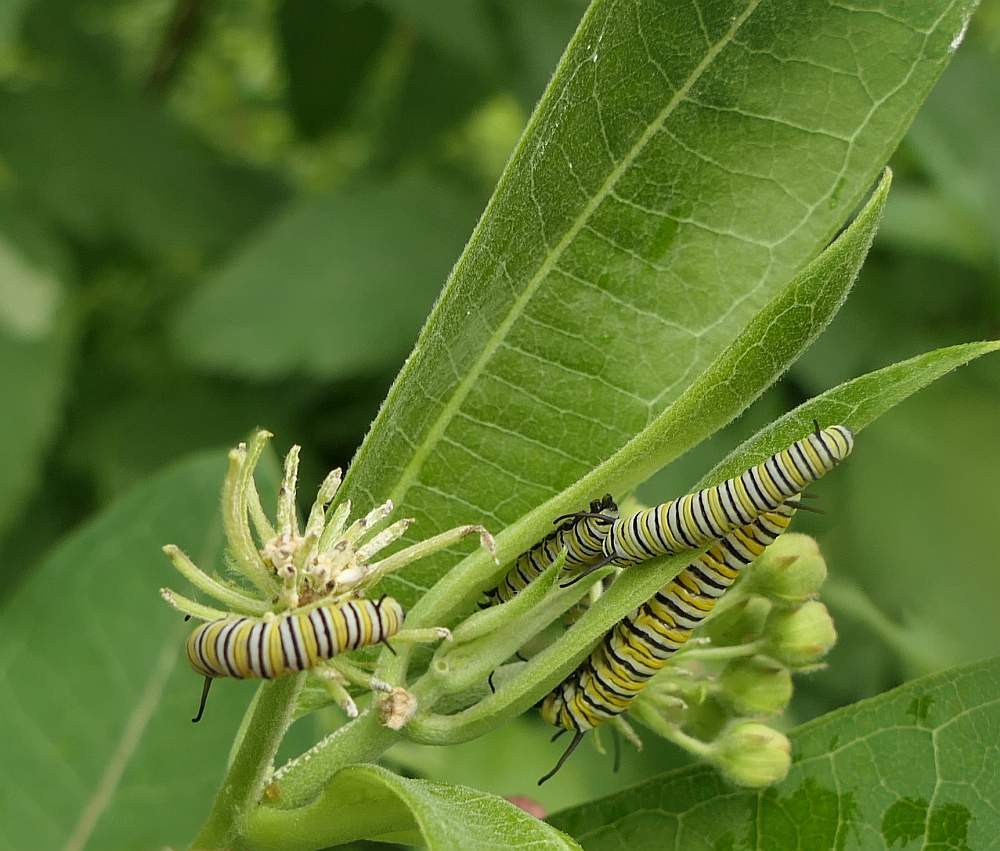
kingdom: Animalia
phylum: Arthropoda
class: Insecta
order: Lepidoptera
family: Nymphalidae
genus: Danaus
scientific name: Danaus plexippus
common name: Monarch
